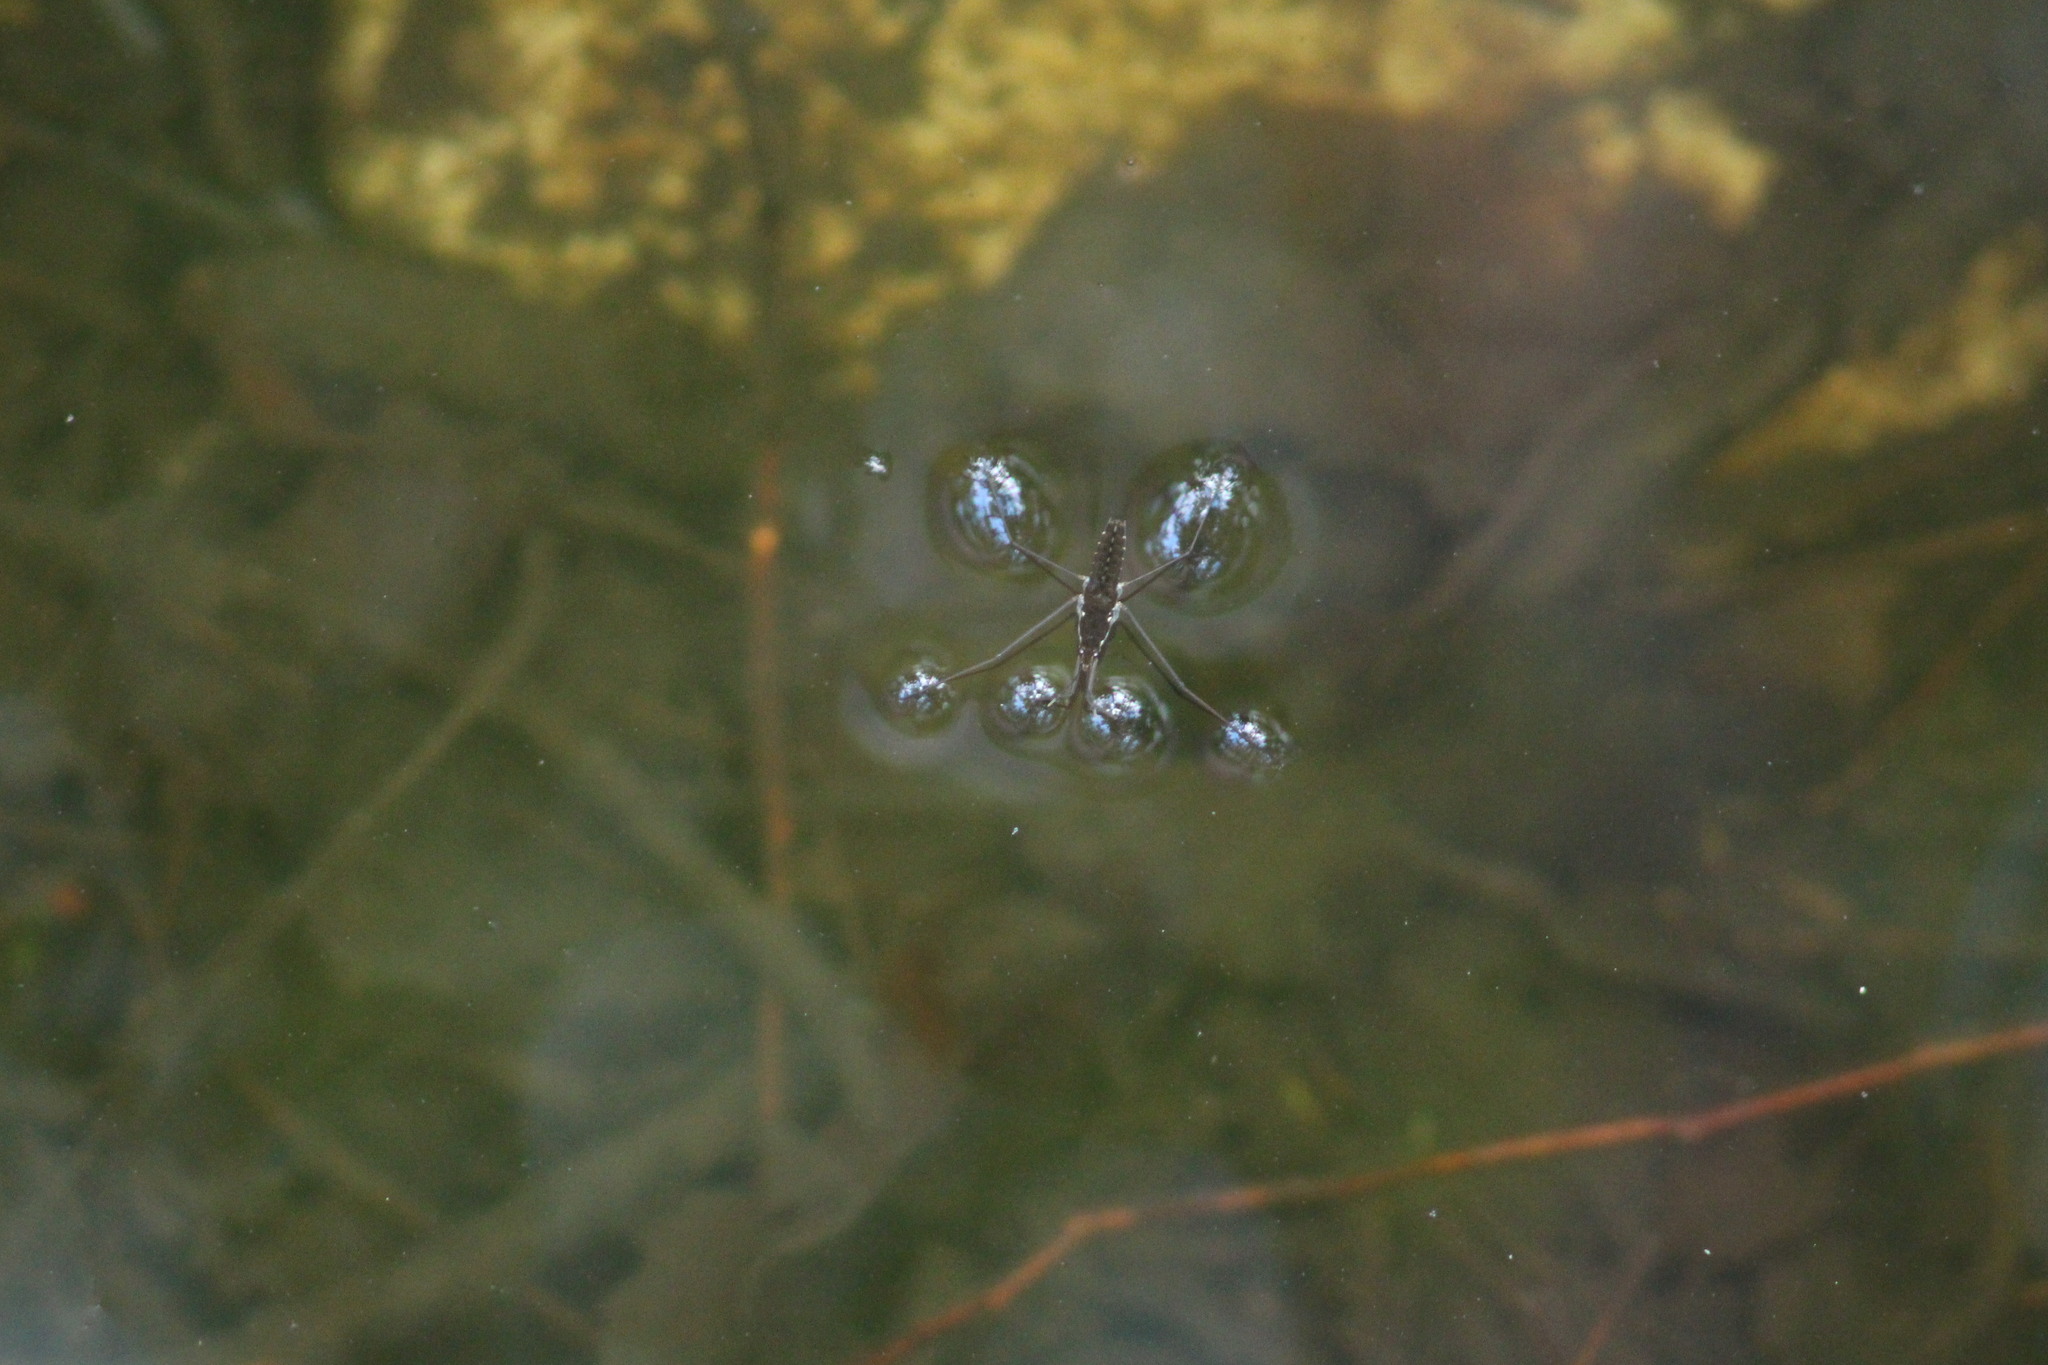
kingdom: Animalia
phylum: Arthropoda
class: Insecta
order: Hemiptera
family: Gerridae
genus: Aquarius
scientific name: Aquarius remigis
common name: Common water strider
